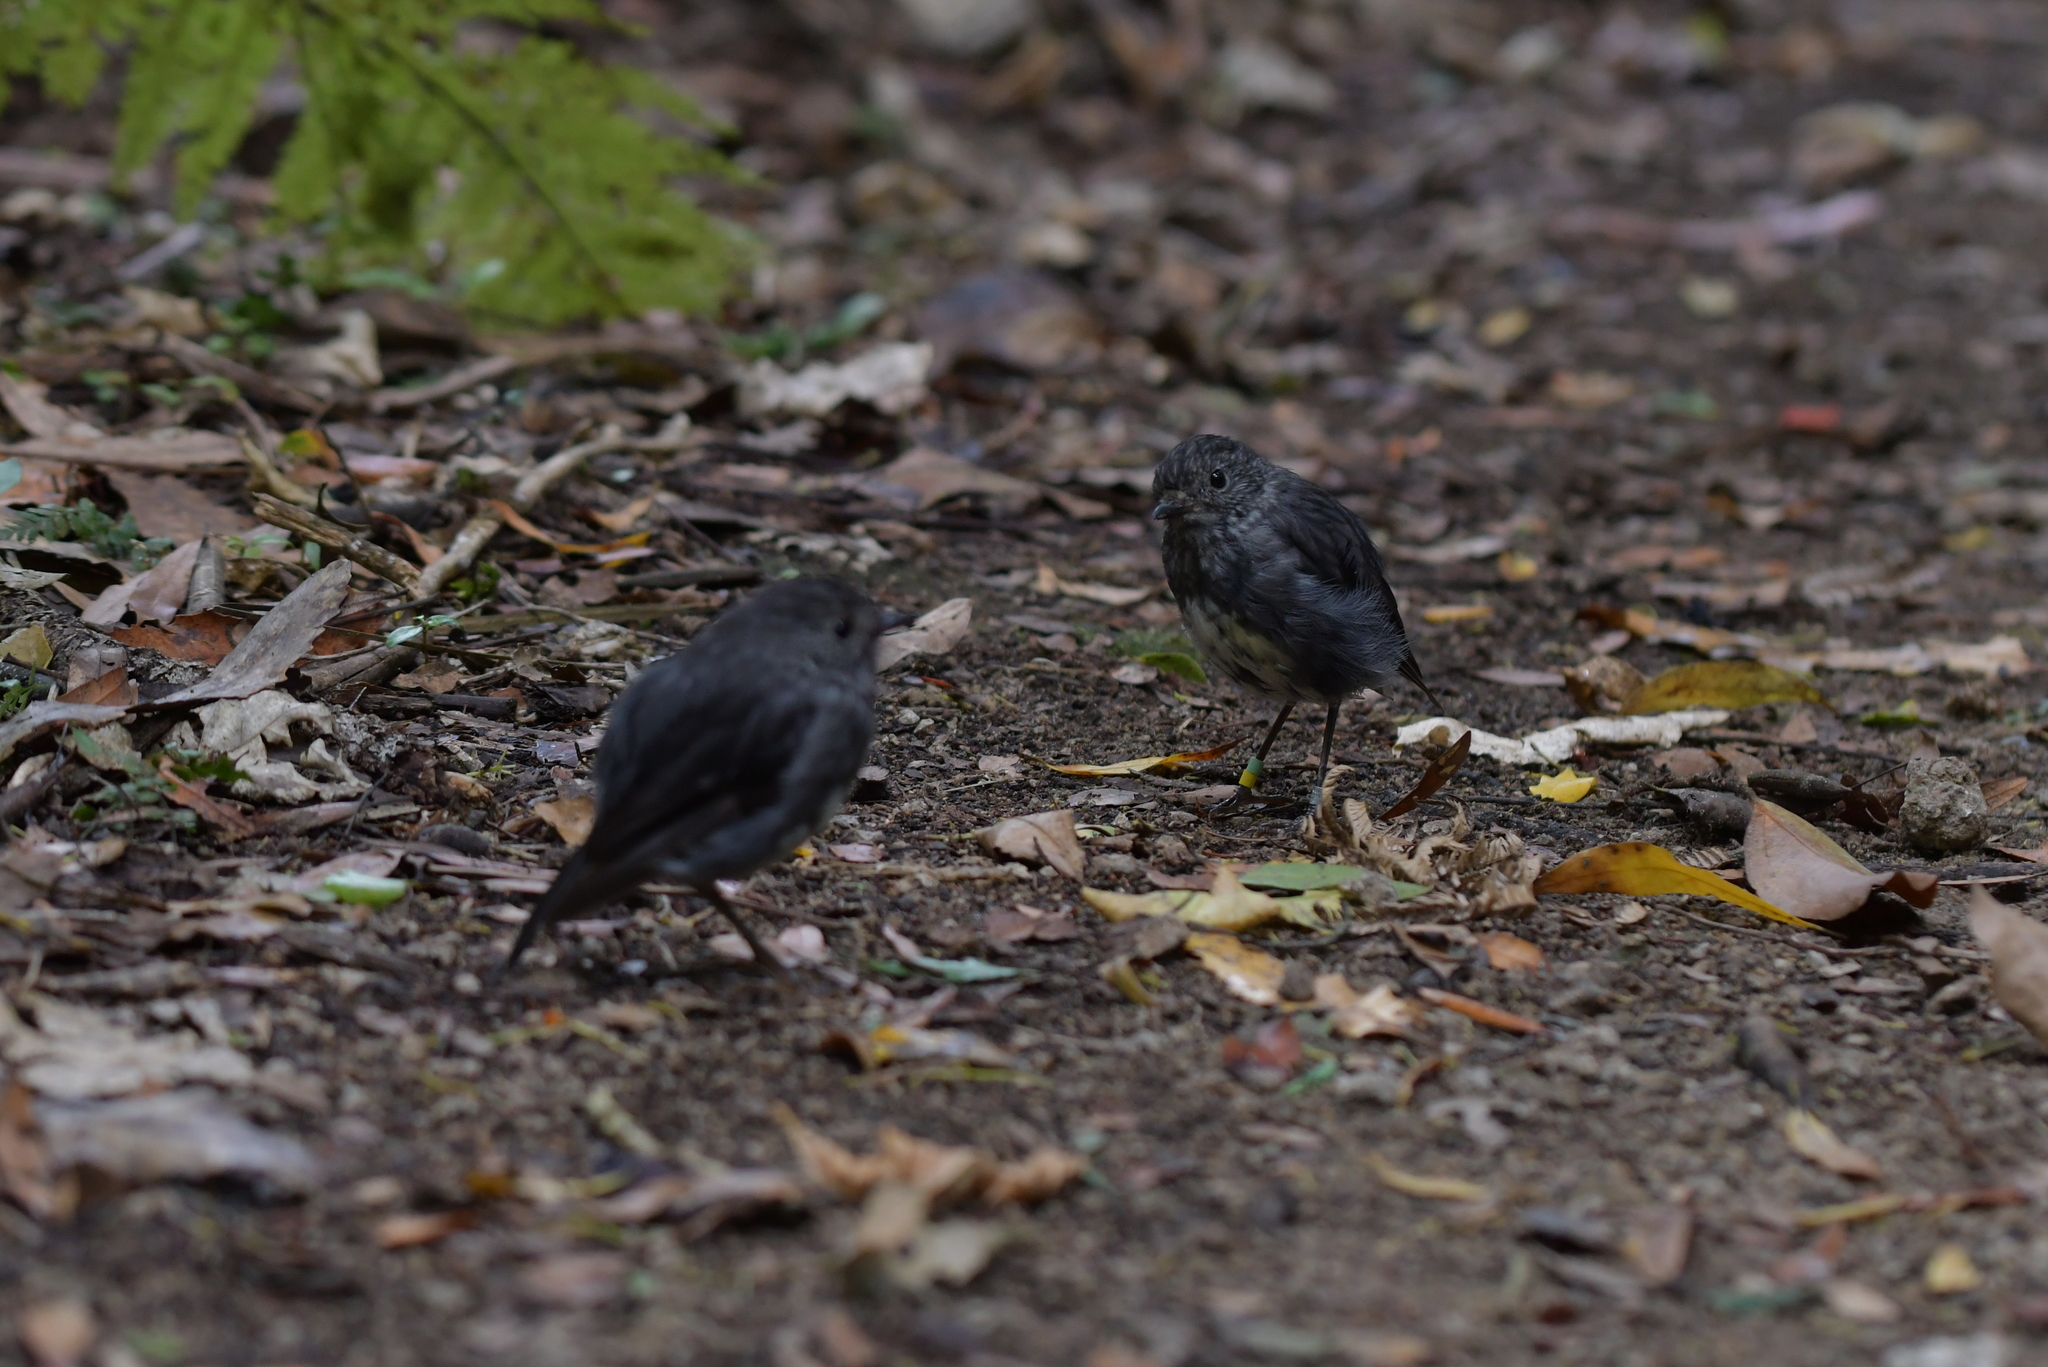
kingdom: Animalia
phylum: Chordata
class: Aves
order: Passeriformes
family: Petroicidae
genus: Petroica
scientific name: Petroica australis
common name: New zealand robin
